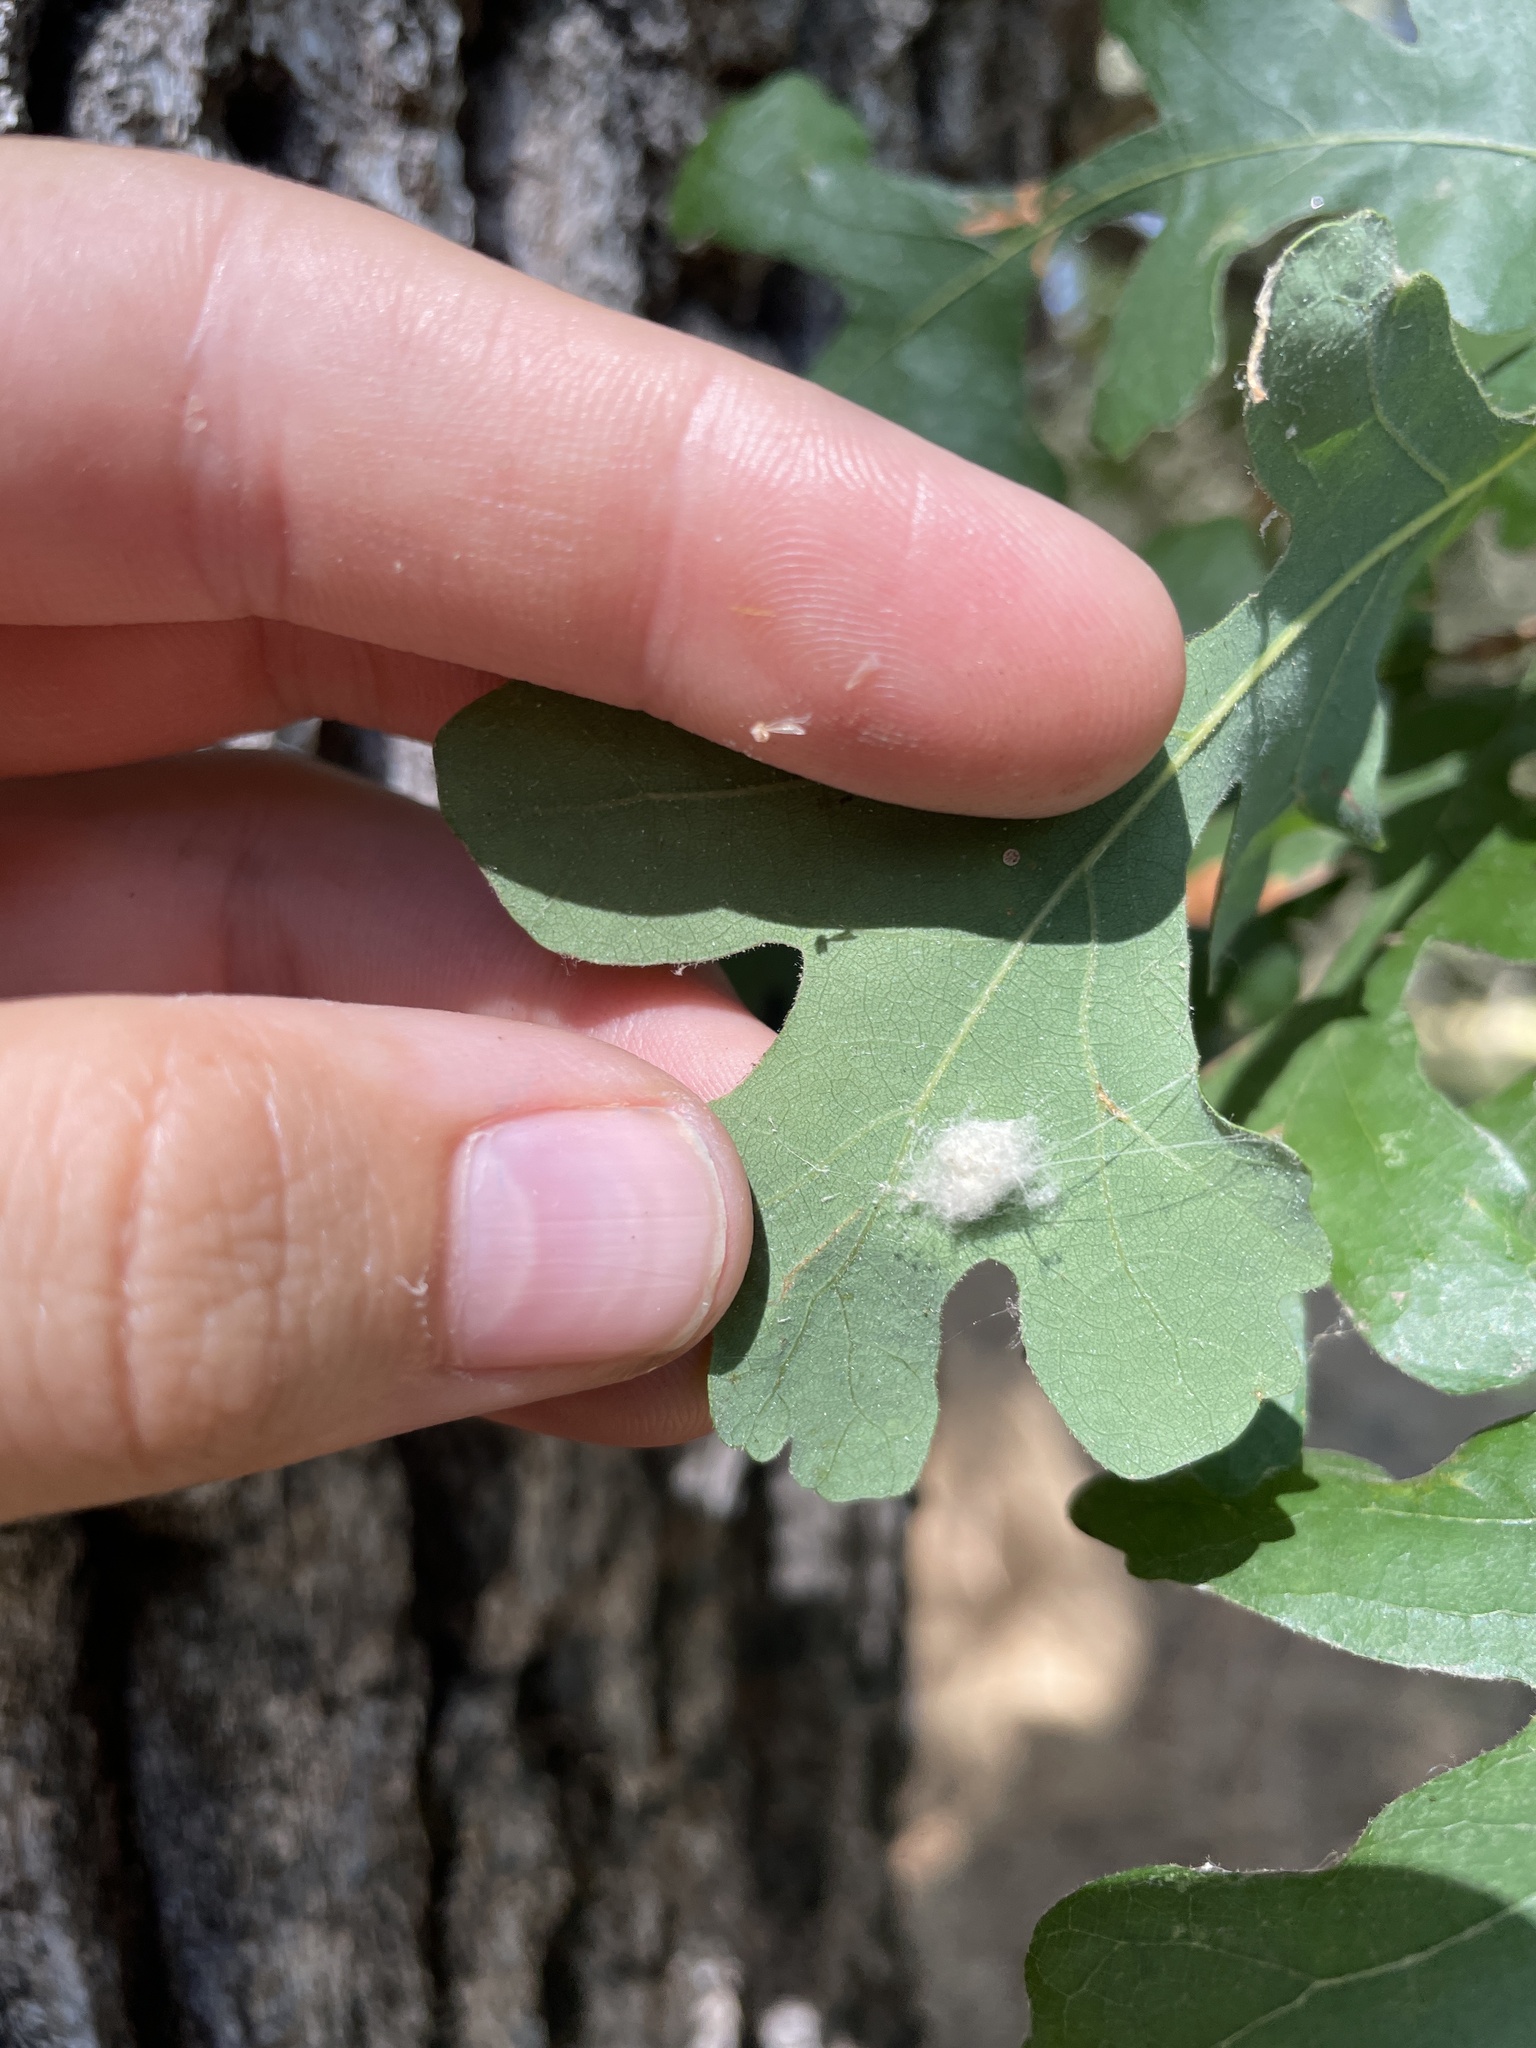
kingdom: Animalia
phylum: Arthropoda
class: Insecta
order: Hymenoptera
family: Cynipidae
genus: Andricus
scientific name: Andricus Druon fullawayi
